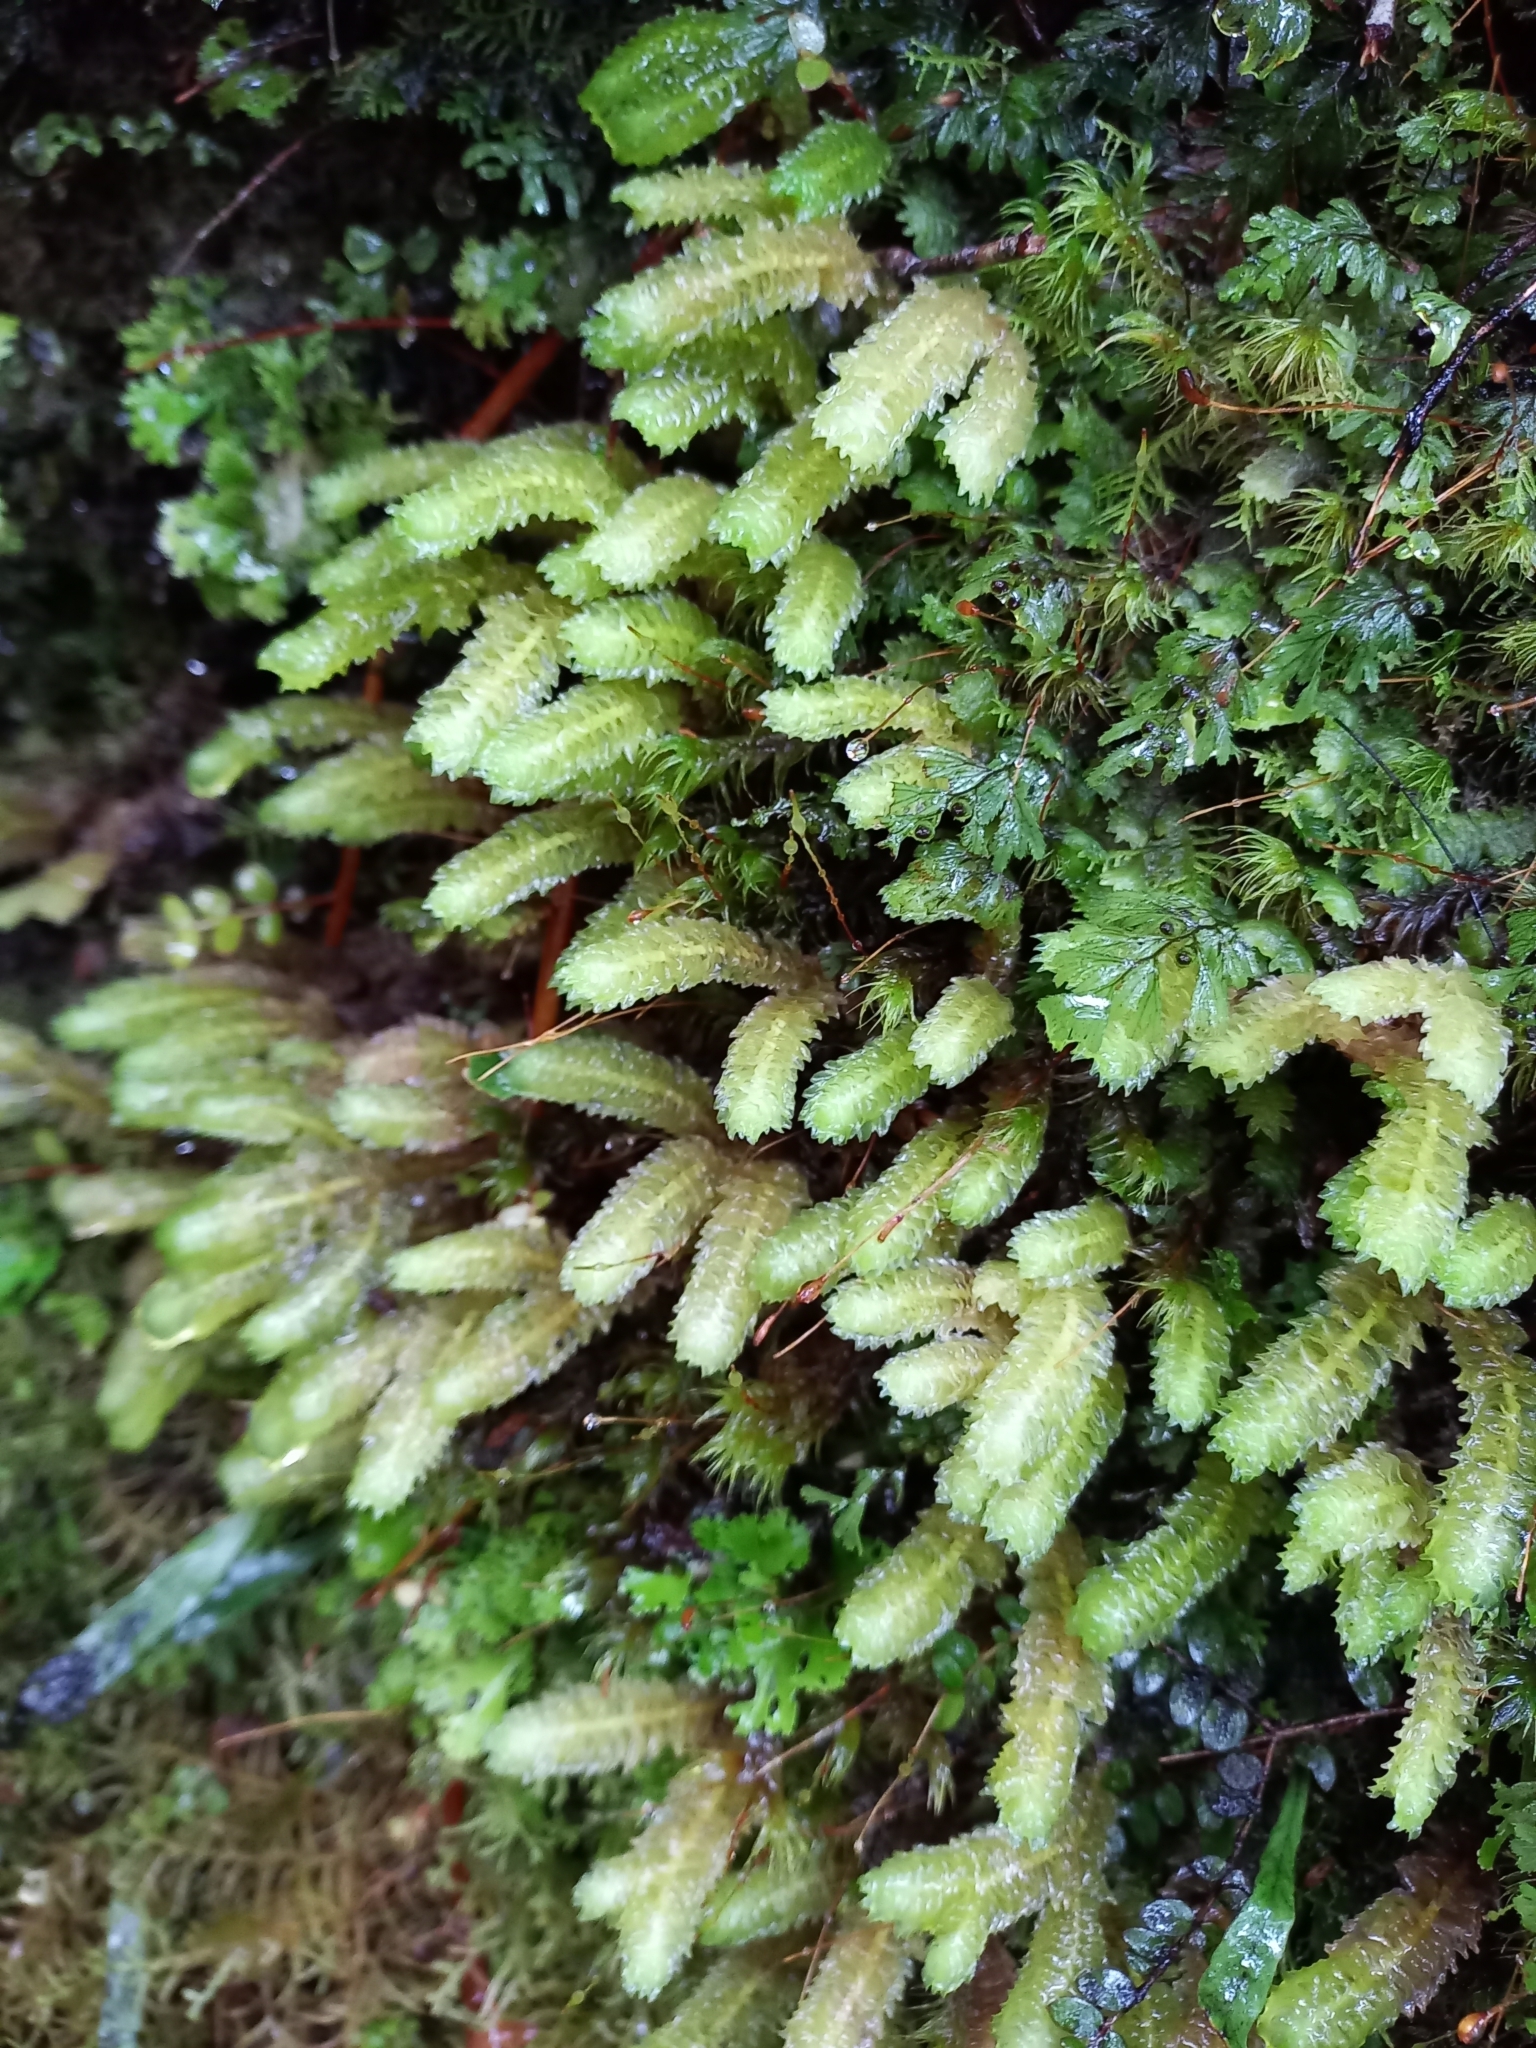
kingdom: Plantae
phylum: Marchantiophyta
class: Jungermanniopsida
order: Jungermanniales
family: Schistochilaceae
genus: Schistochila
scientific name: Schistochila nobilis
